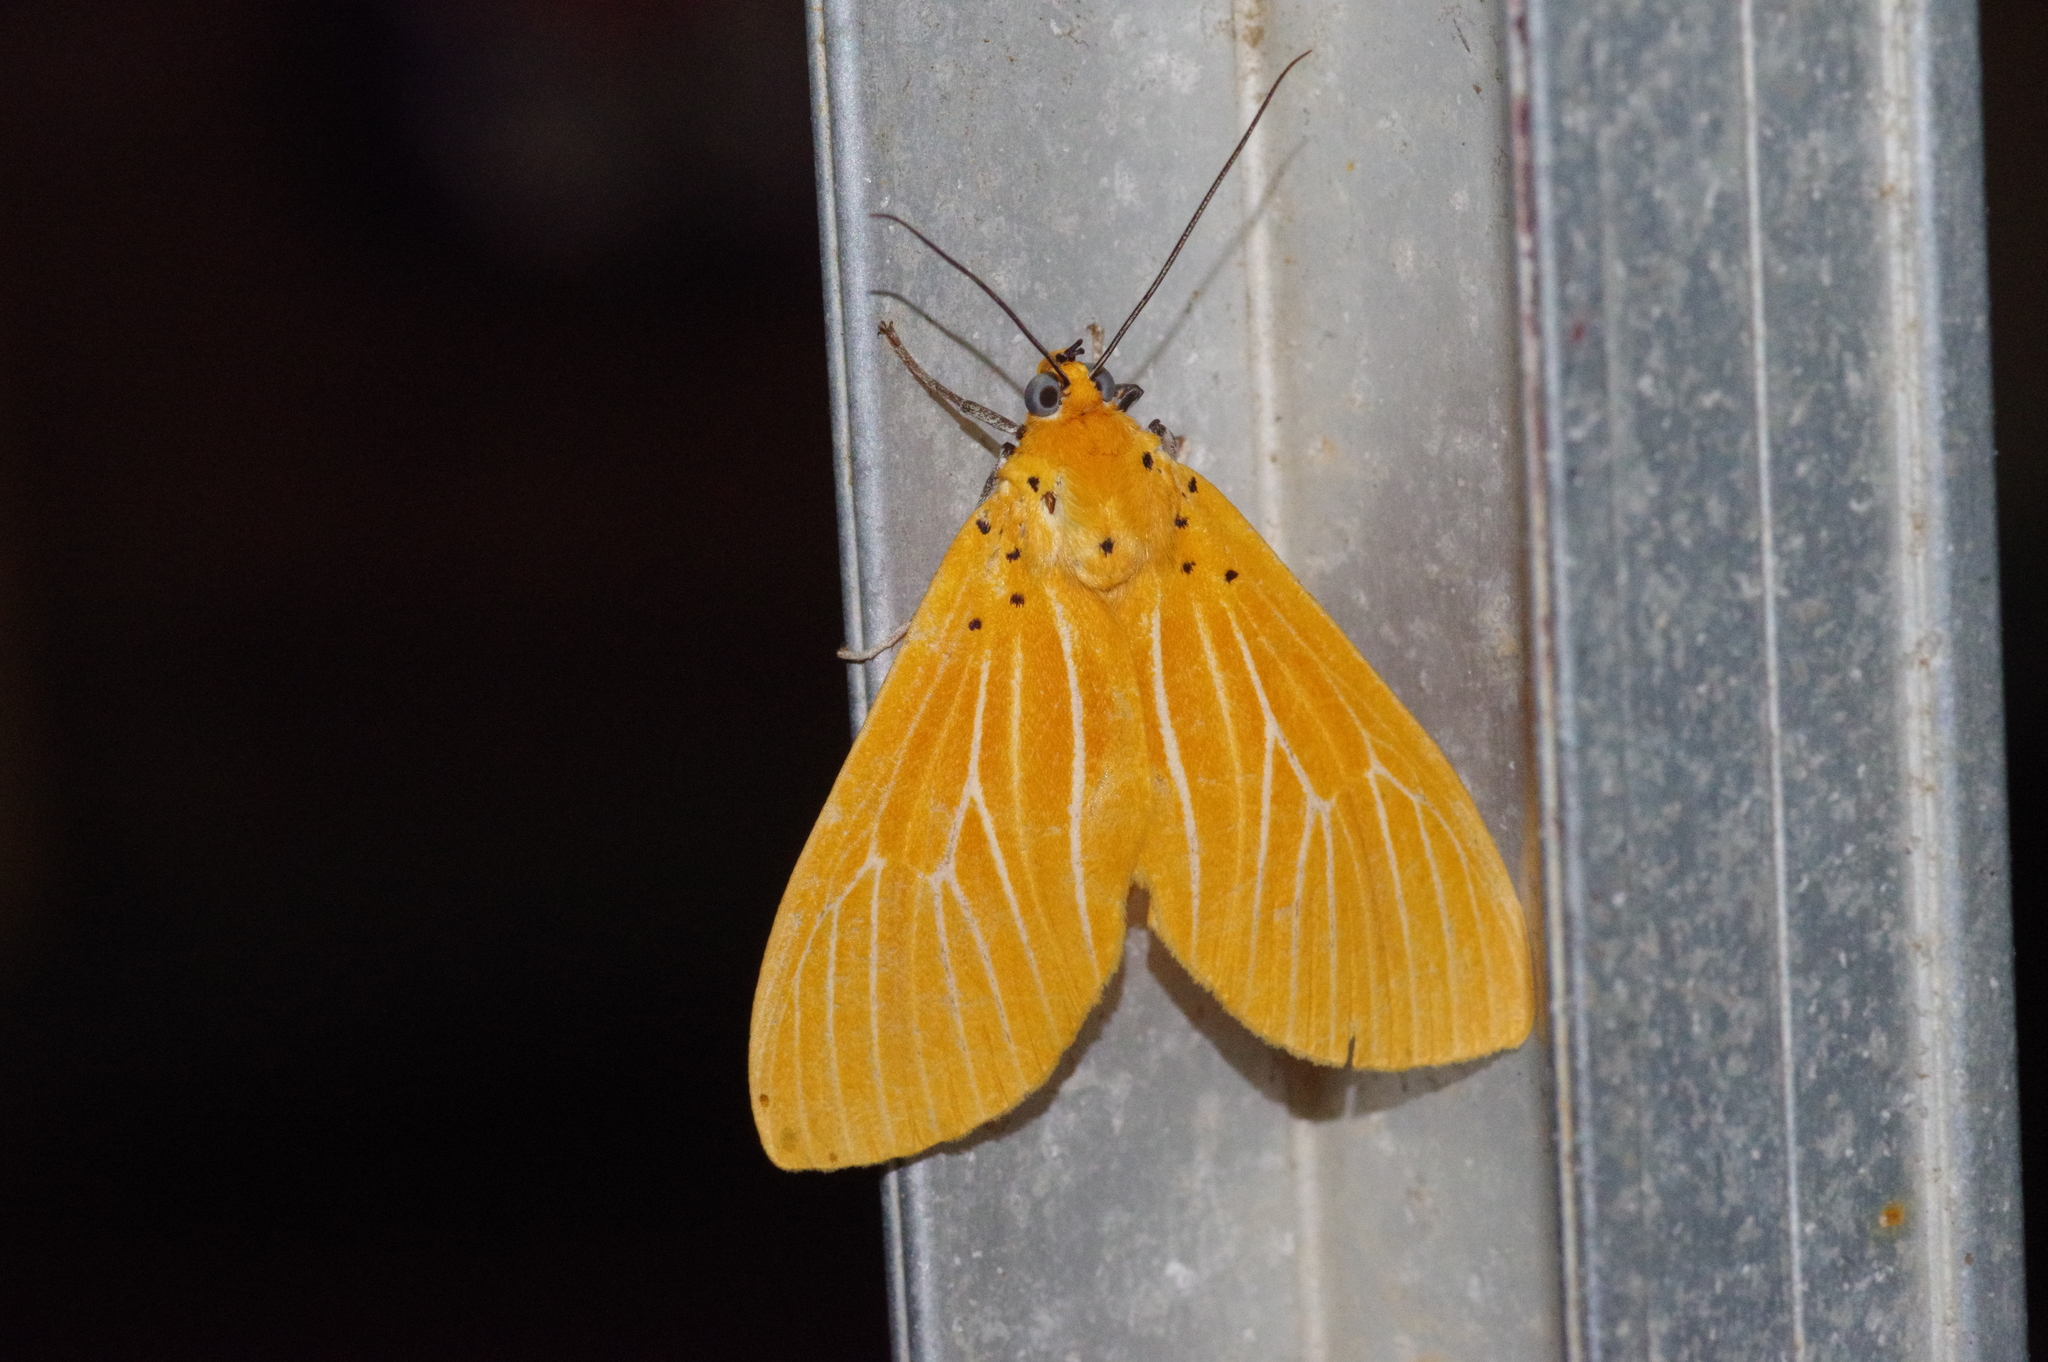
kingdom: Animalia
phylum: Arthropoda
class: Insecta
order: Lepidoptera
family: Erebidae
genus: Asota
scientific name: Asota egens
